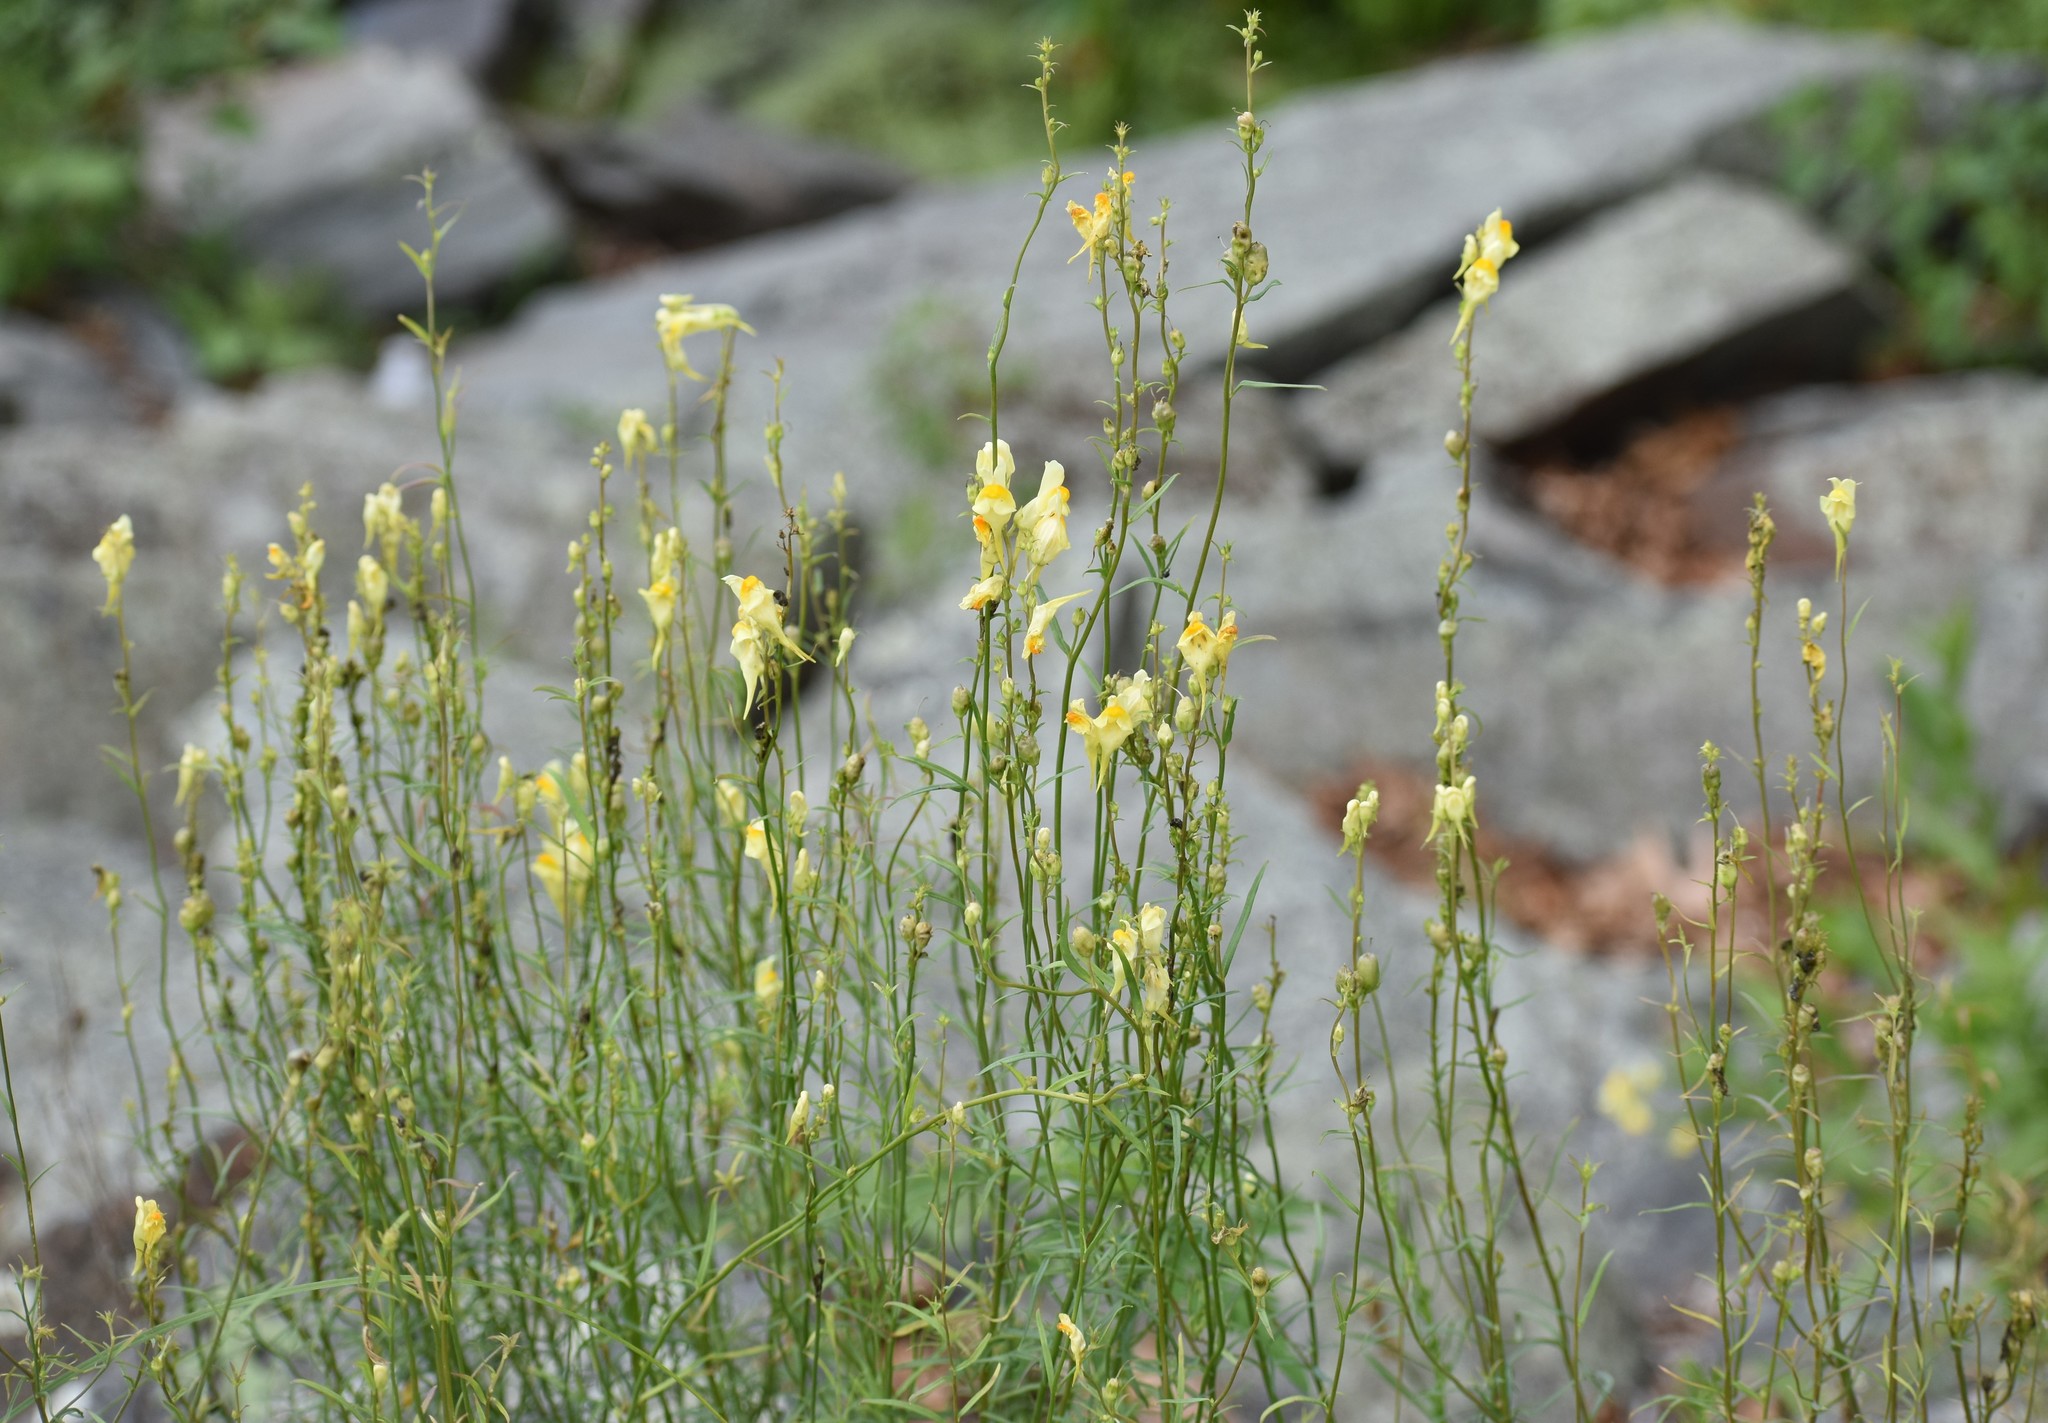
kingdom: Plantae
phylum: Tracheophyta
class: Magnoliopsida
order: Lamiales
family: Plantaginaceae
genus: Linaria
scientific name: Linaria vulgaris
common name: Butter and eggs
